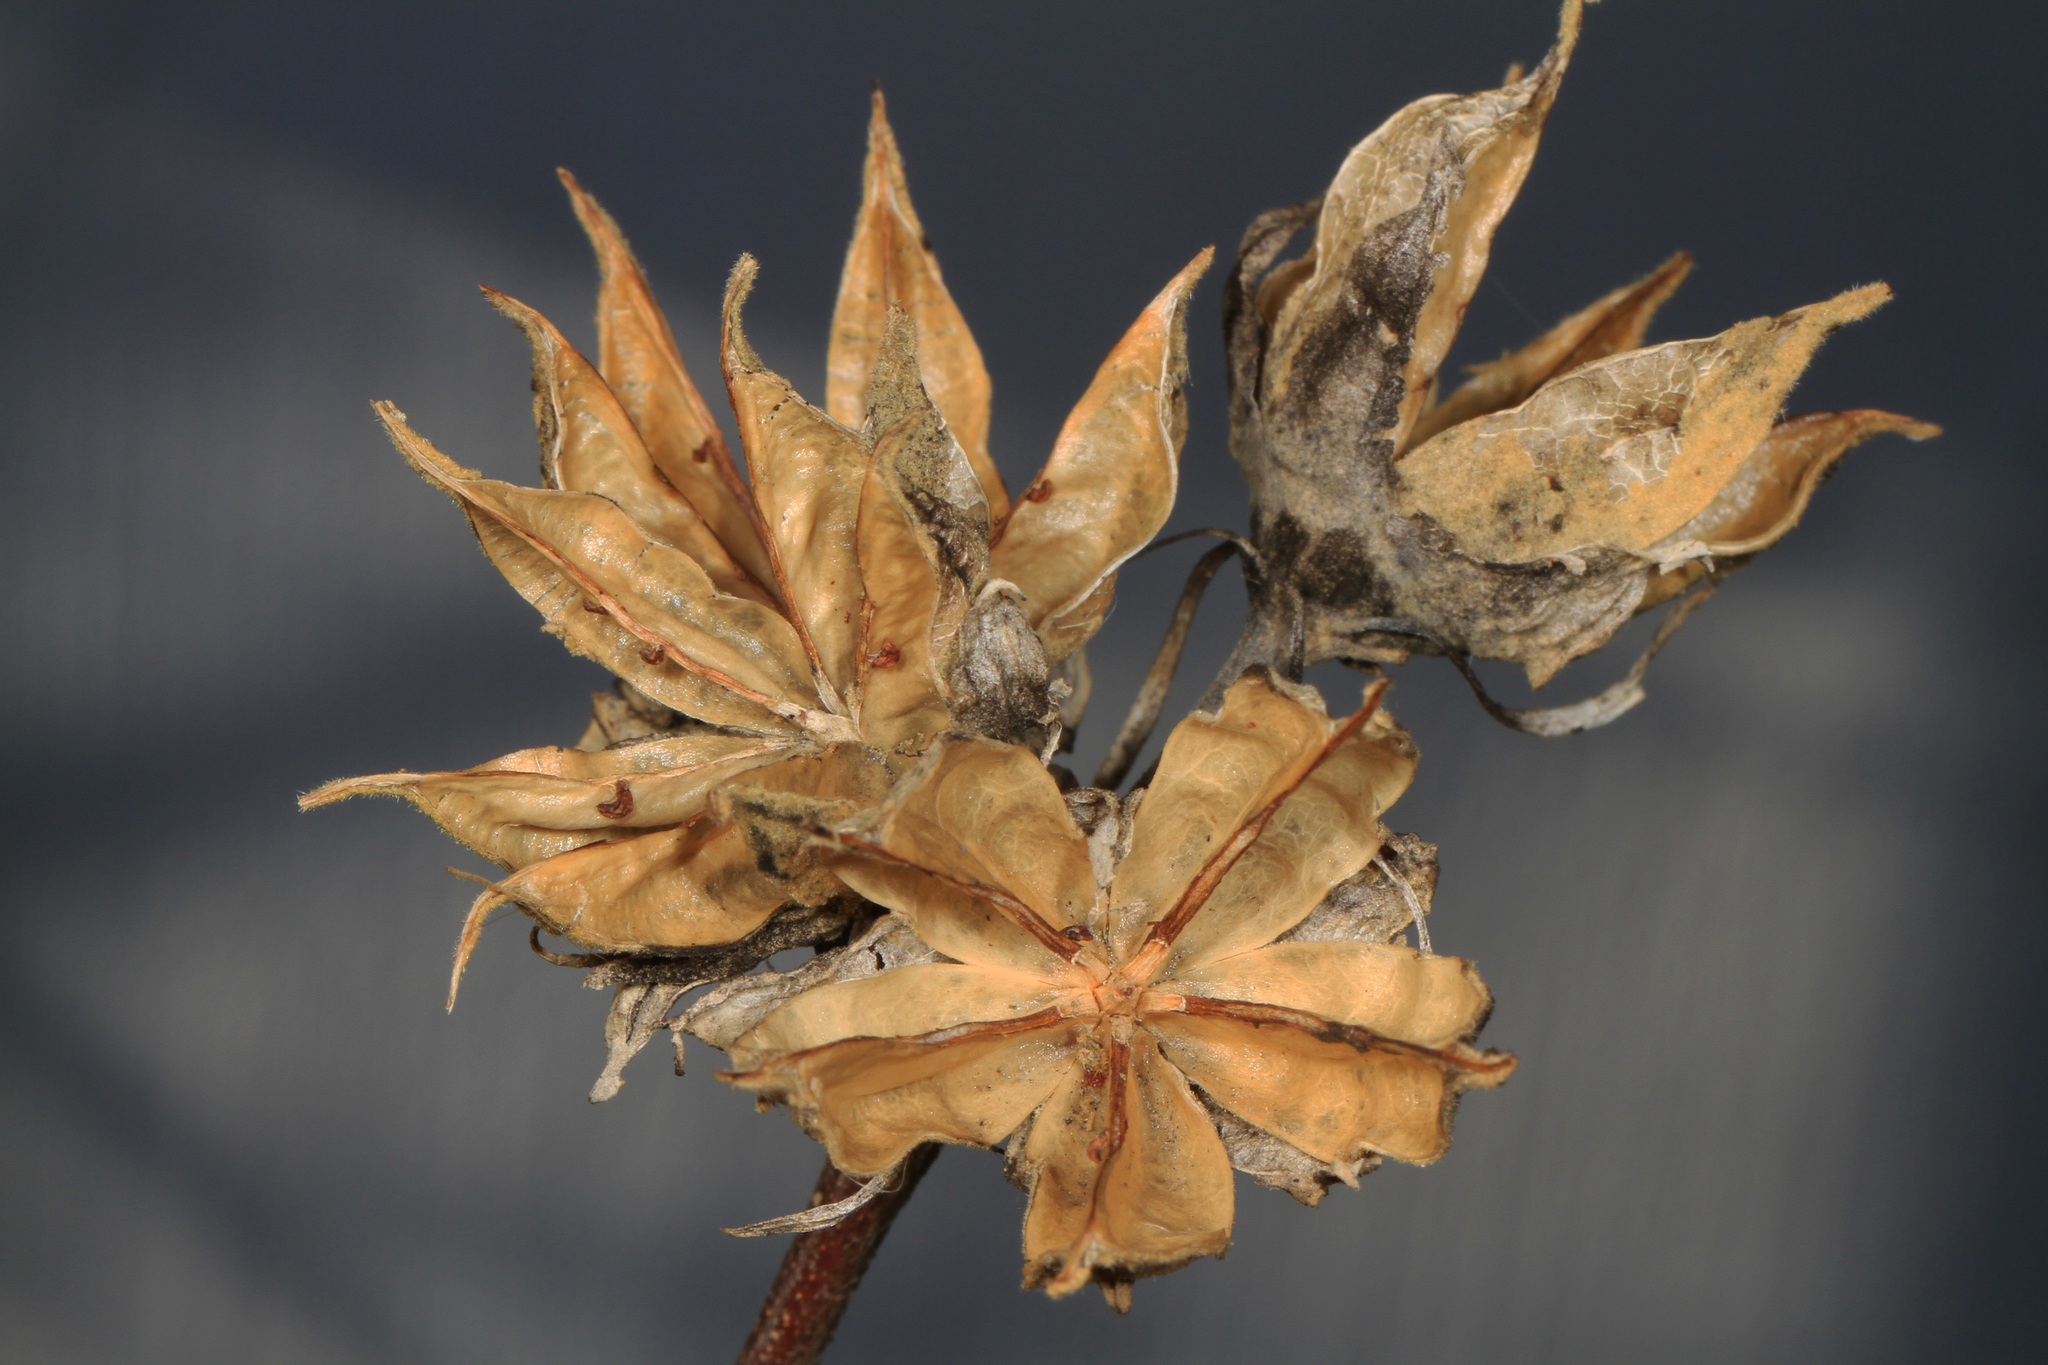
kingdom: Plantae
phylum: Tracheophyta
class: Magnoliopsida
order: Malvales
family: Malvaceae
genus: Hibiscus
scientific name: Hibiscus syriacus
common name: Syrian ketmia
